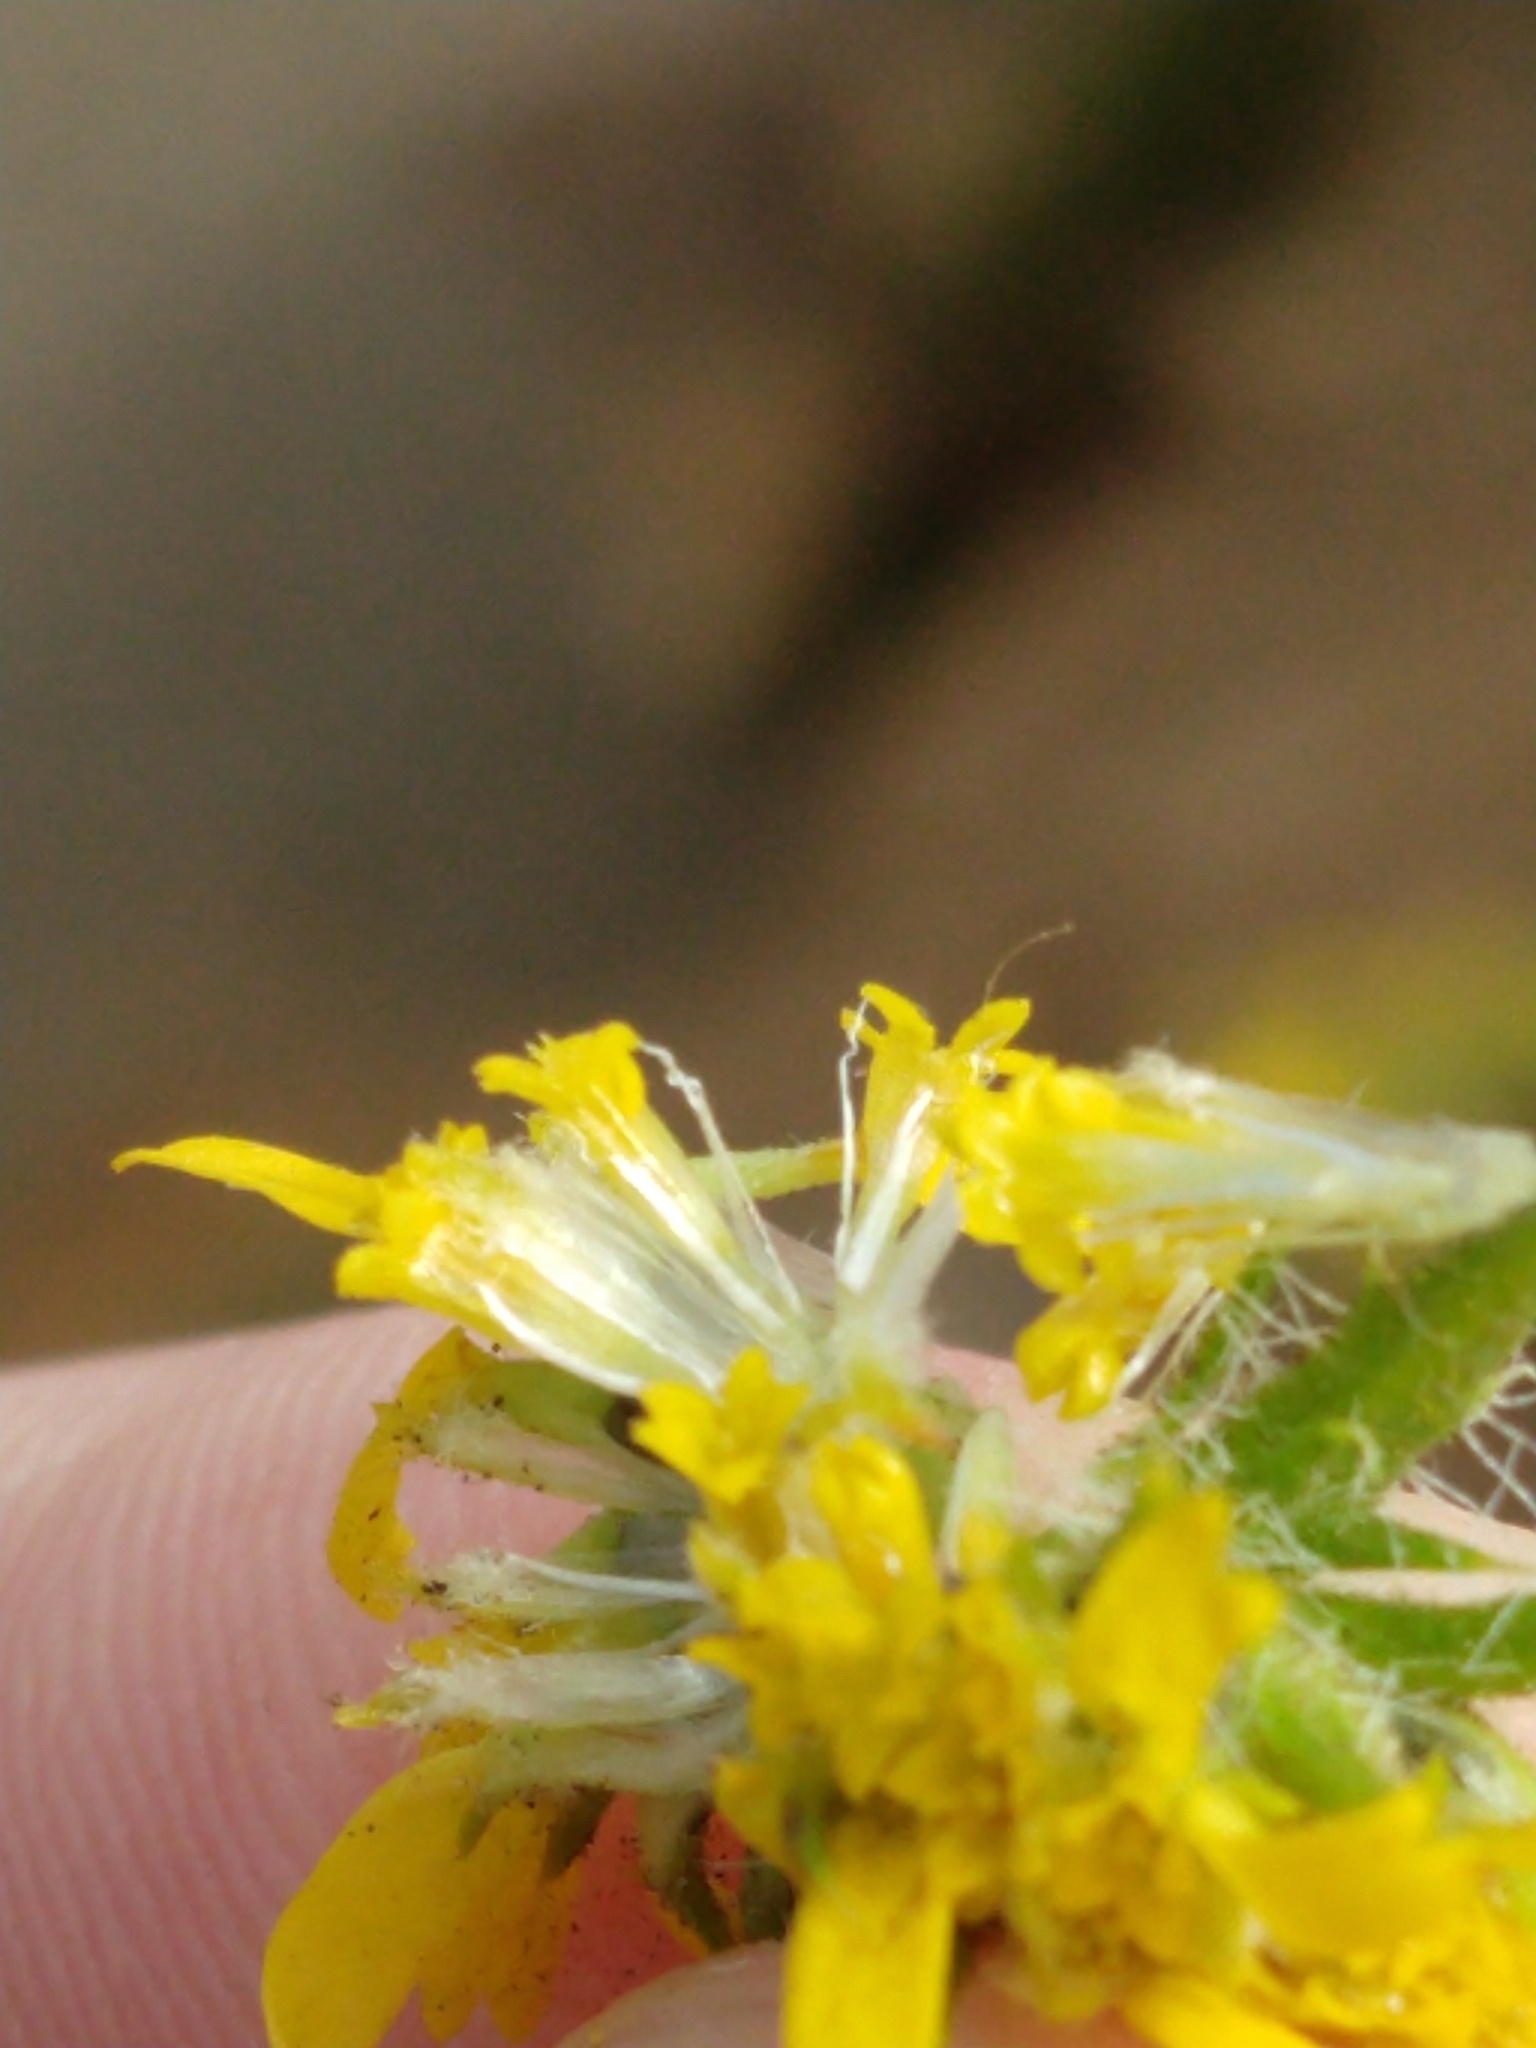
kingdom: Plantae
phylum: Tracheophyta
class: Magnoliopsida
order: Asterales
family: Asteraceae
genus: Centromadia
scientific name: Centromadia parryi
